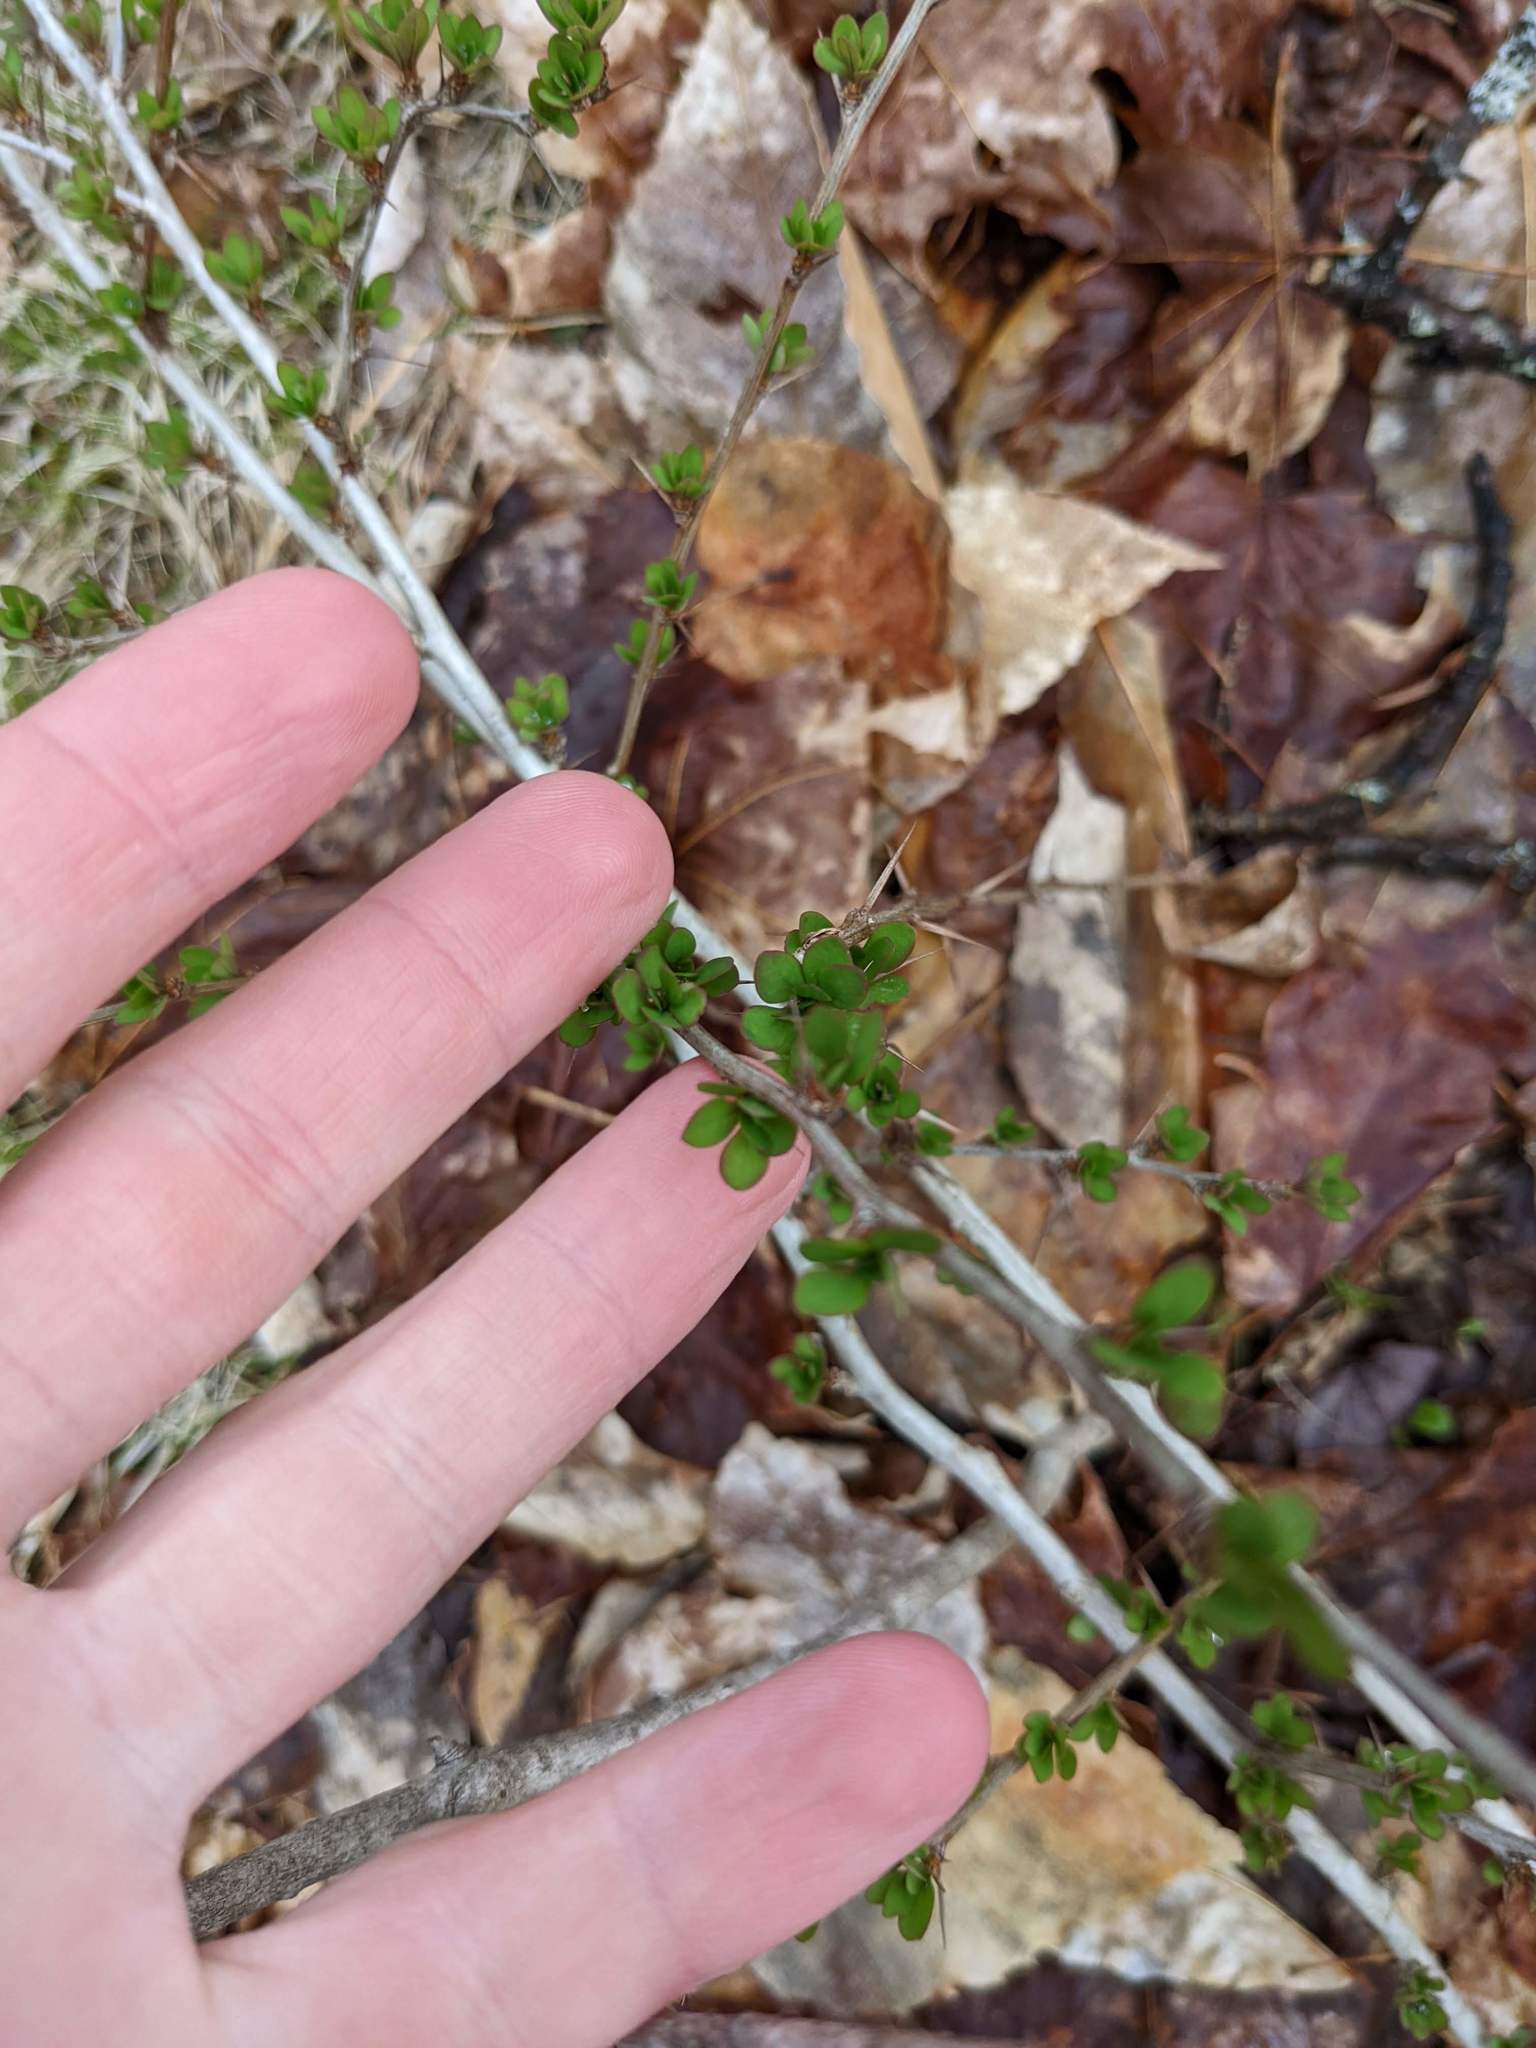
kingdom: Plantae
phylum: Tracheophyta
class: Magnoliopsida
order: Ranunculales
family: Berberidaceae
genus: Berberis
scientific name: Berberis thunbergii
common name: Japanese barberry
